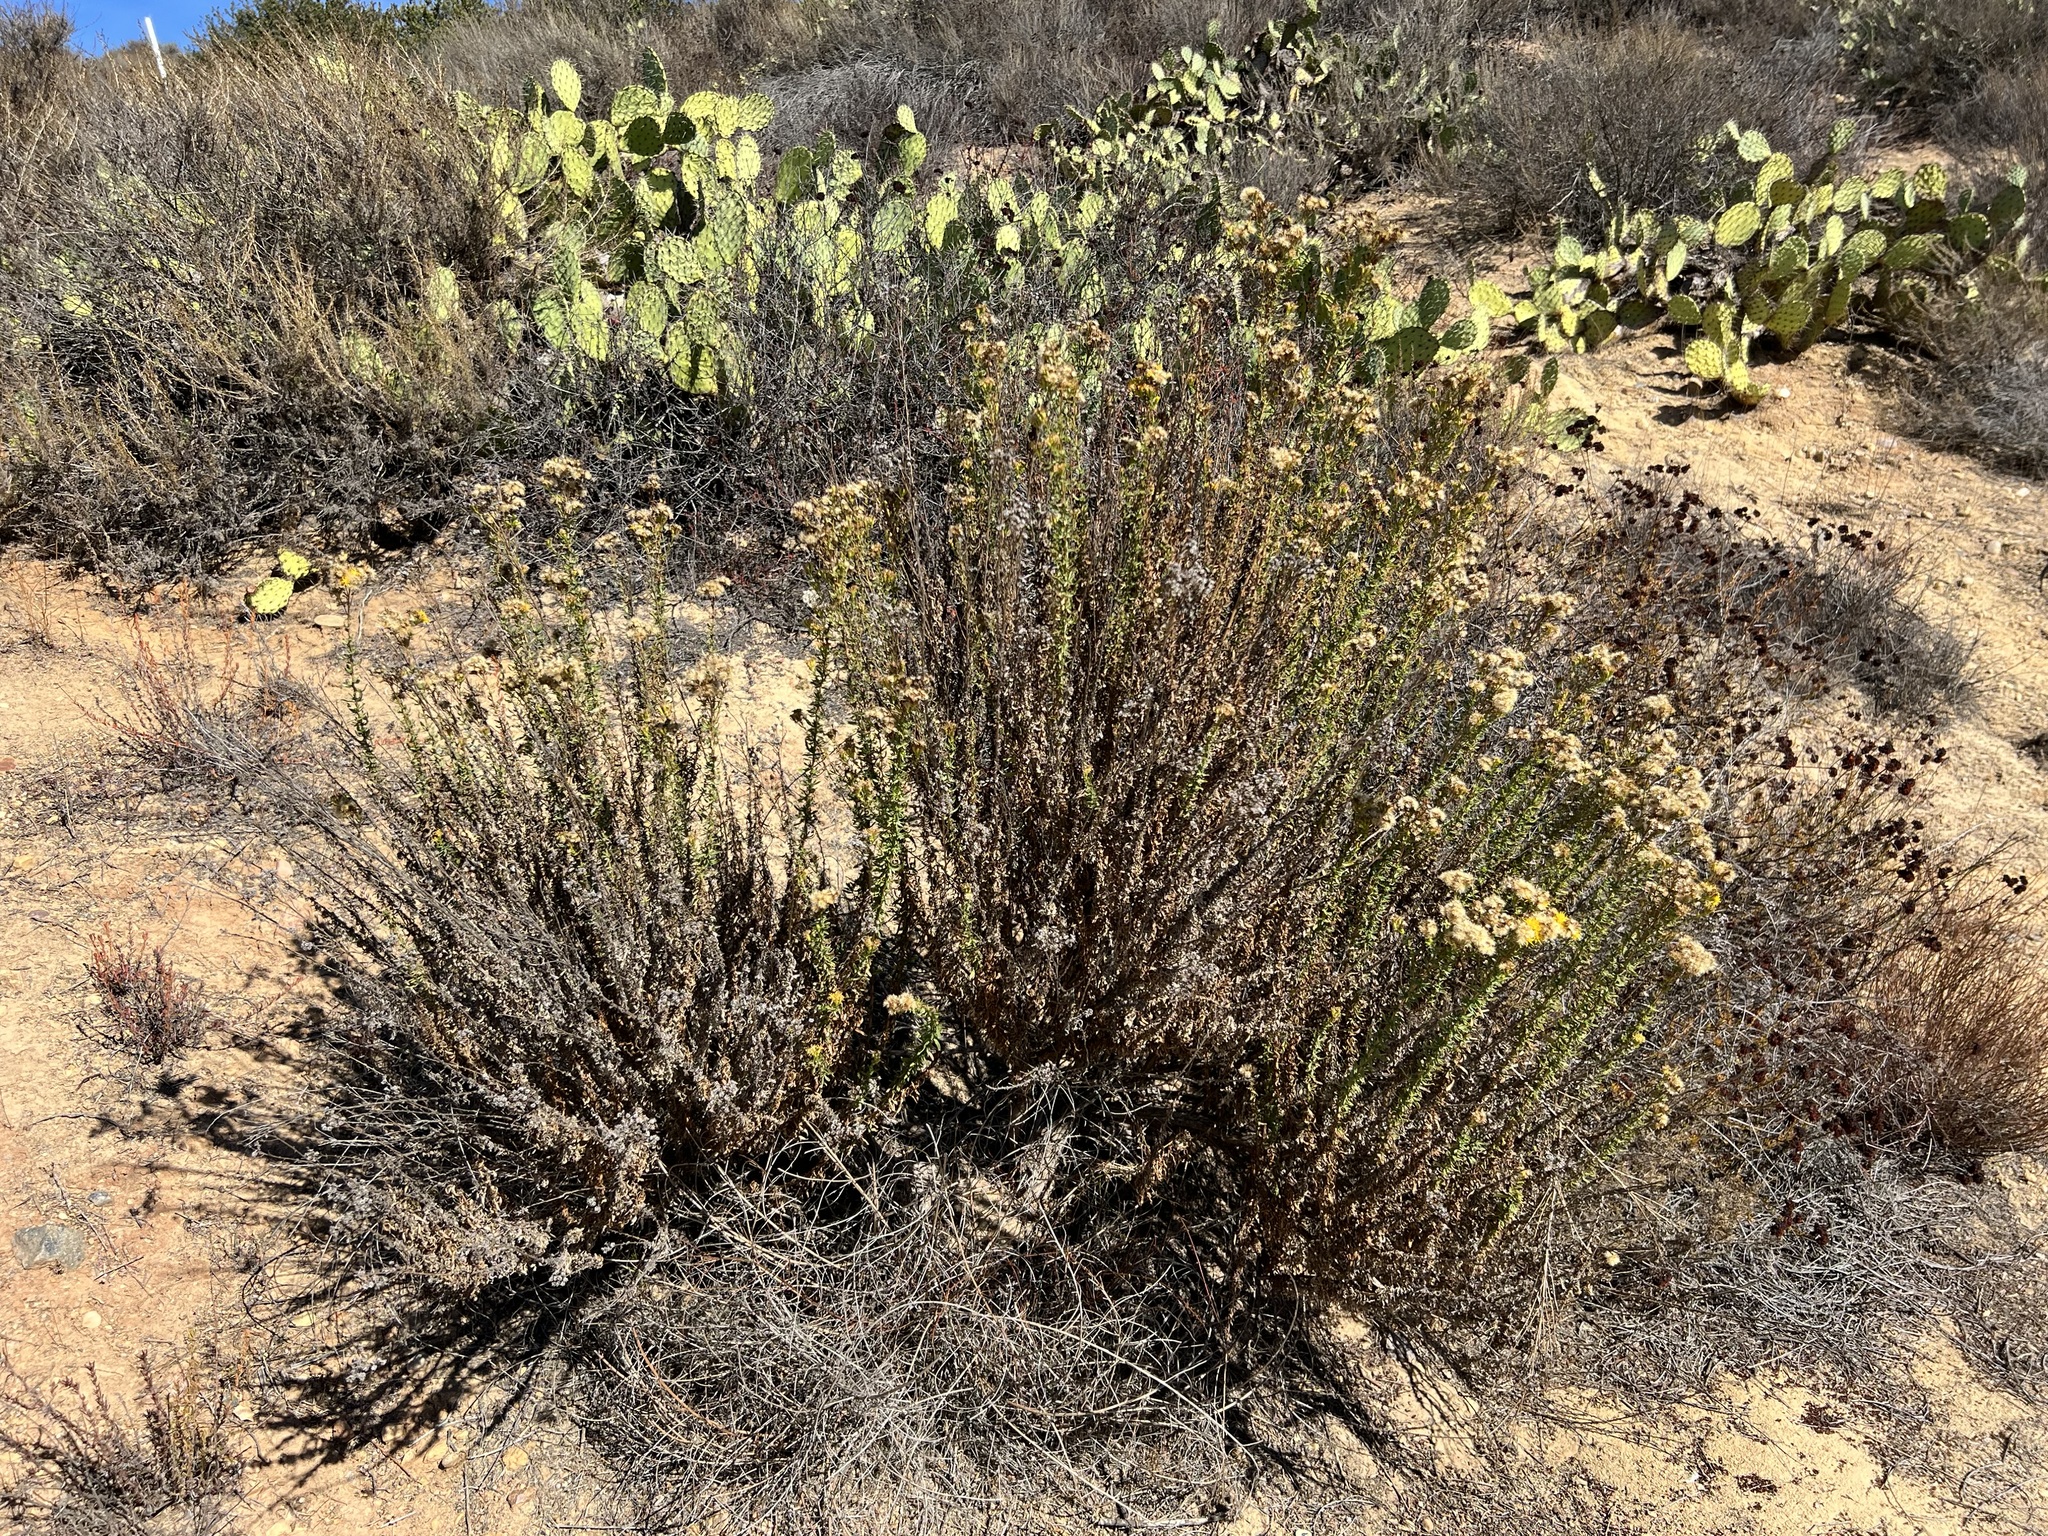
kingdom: Plantae
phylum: Tracheophyta
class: Magnoliopsida
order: Asterales
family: Asteraceae
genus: Isocoma
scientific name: Isocoma menziesii
